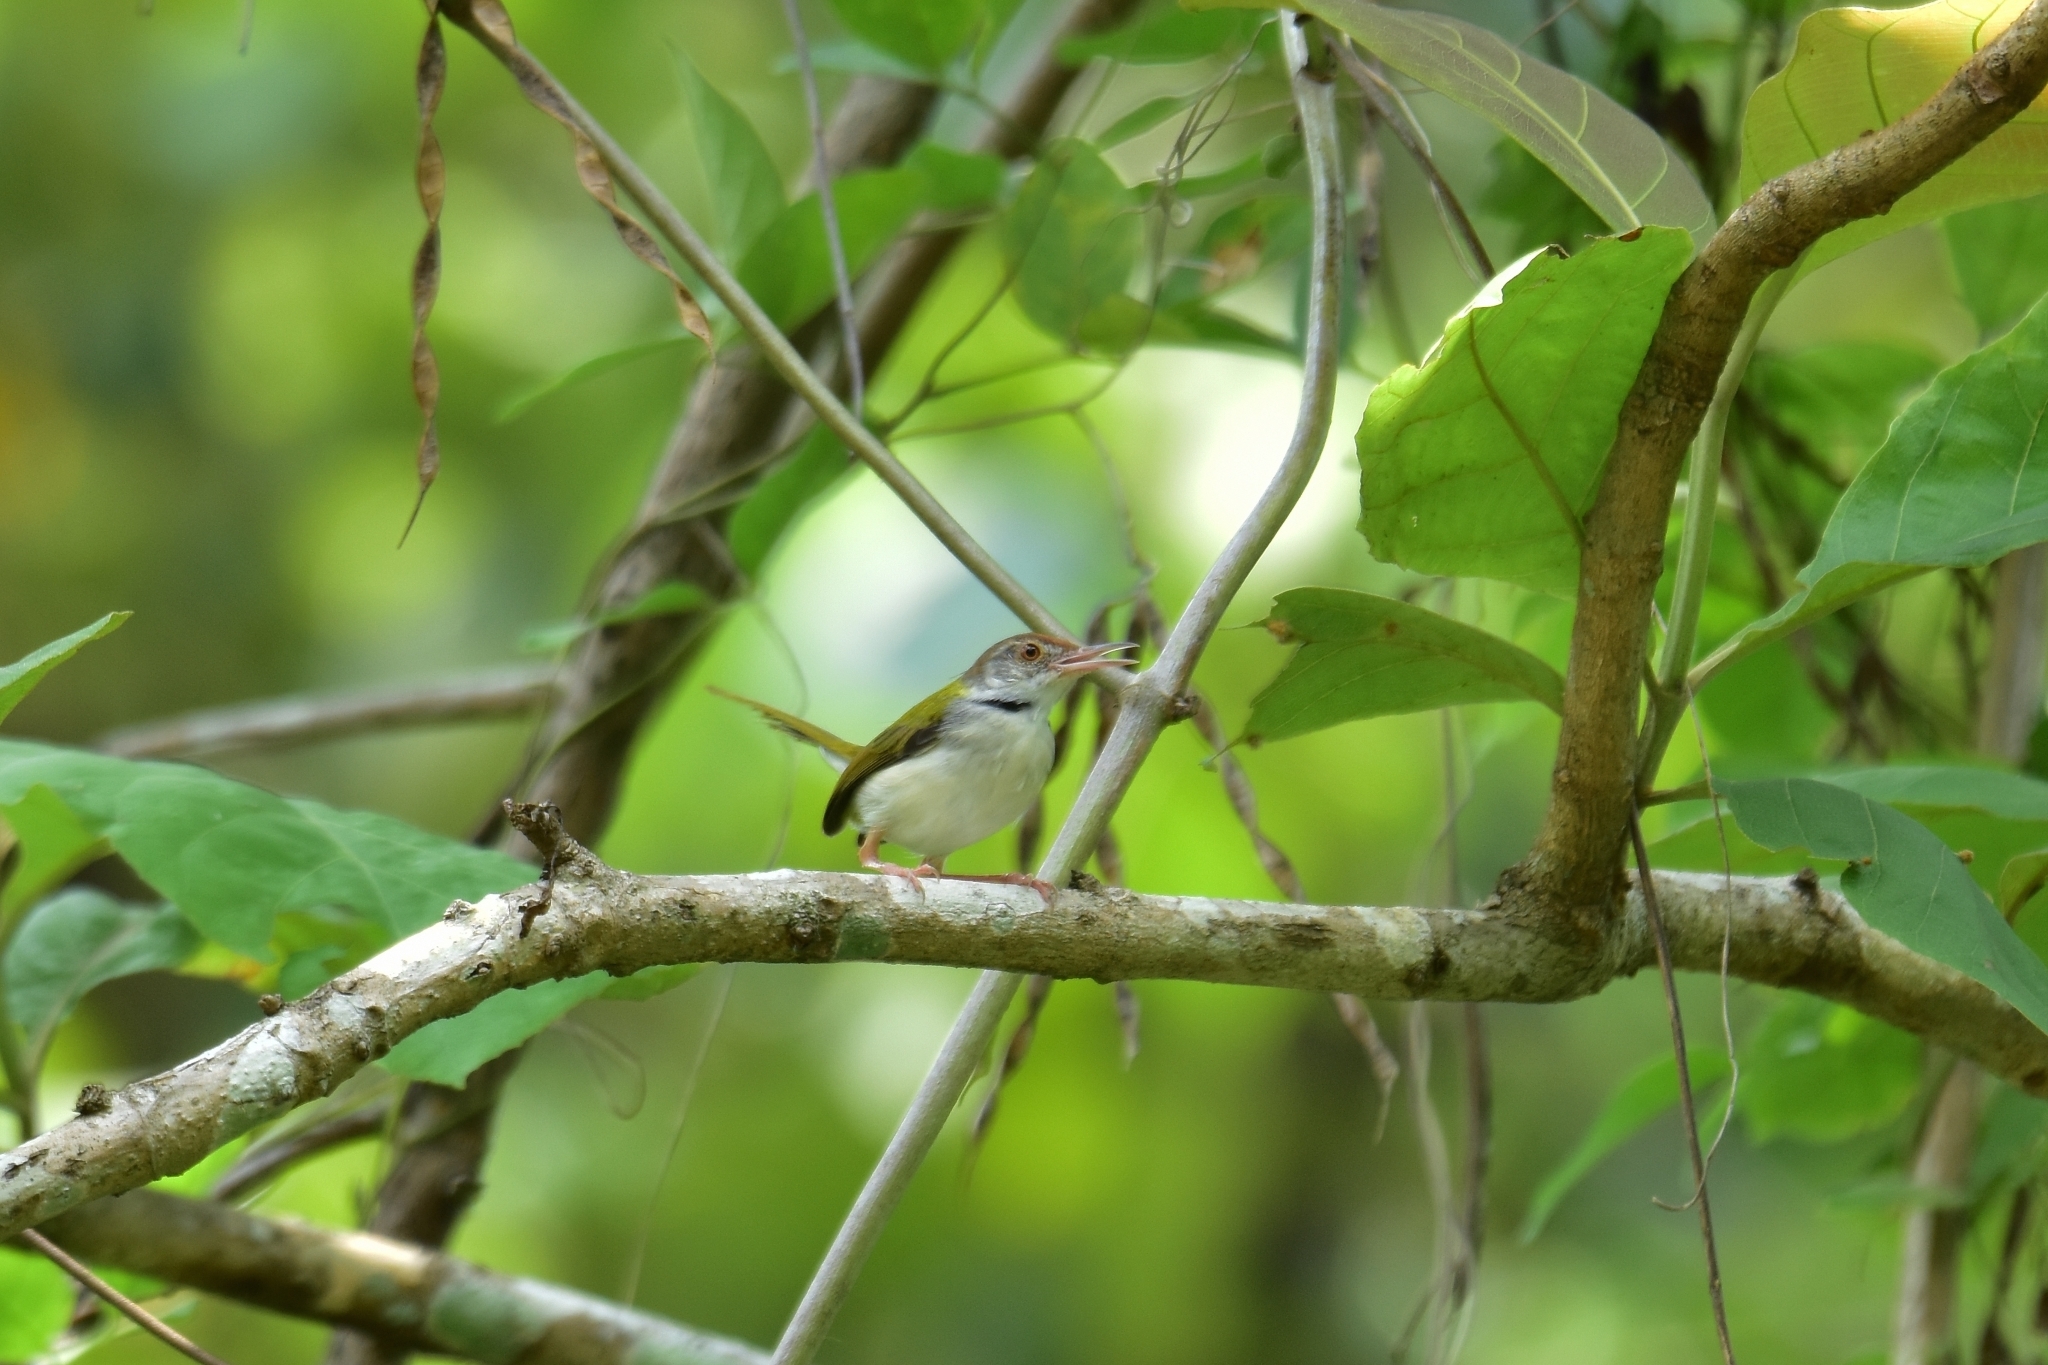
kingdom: Animalia
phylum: Chordata
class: Aves
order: Passeriformes
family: Cisticolidae
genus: Orthotomus
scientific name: Orthotomus sutorius
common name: Common tailorbird
